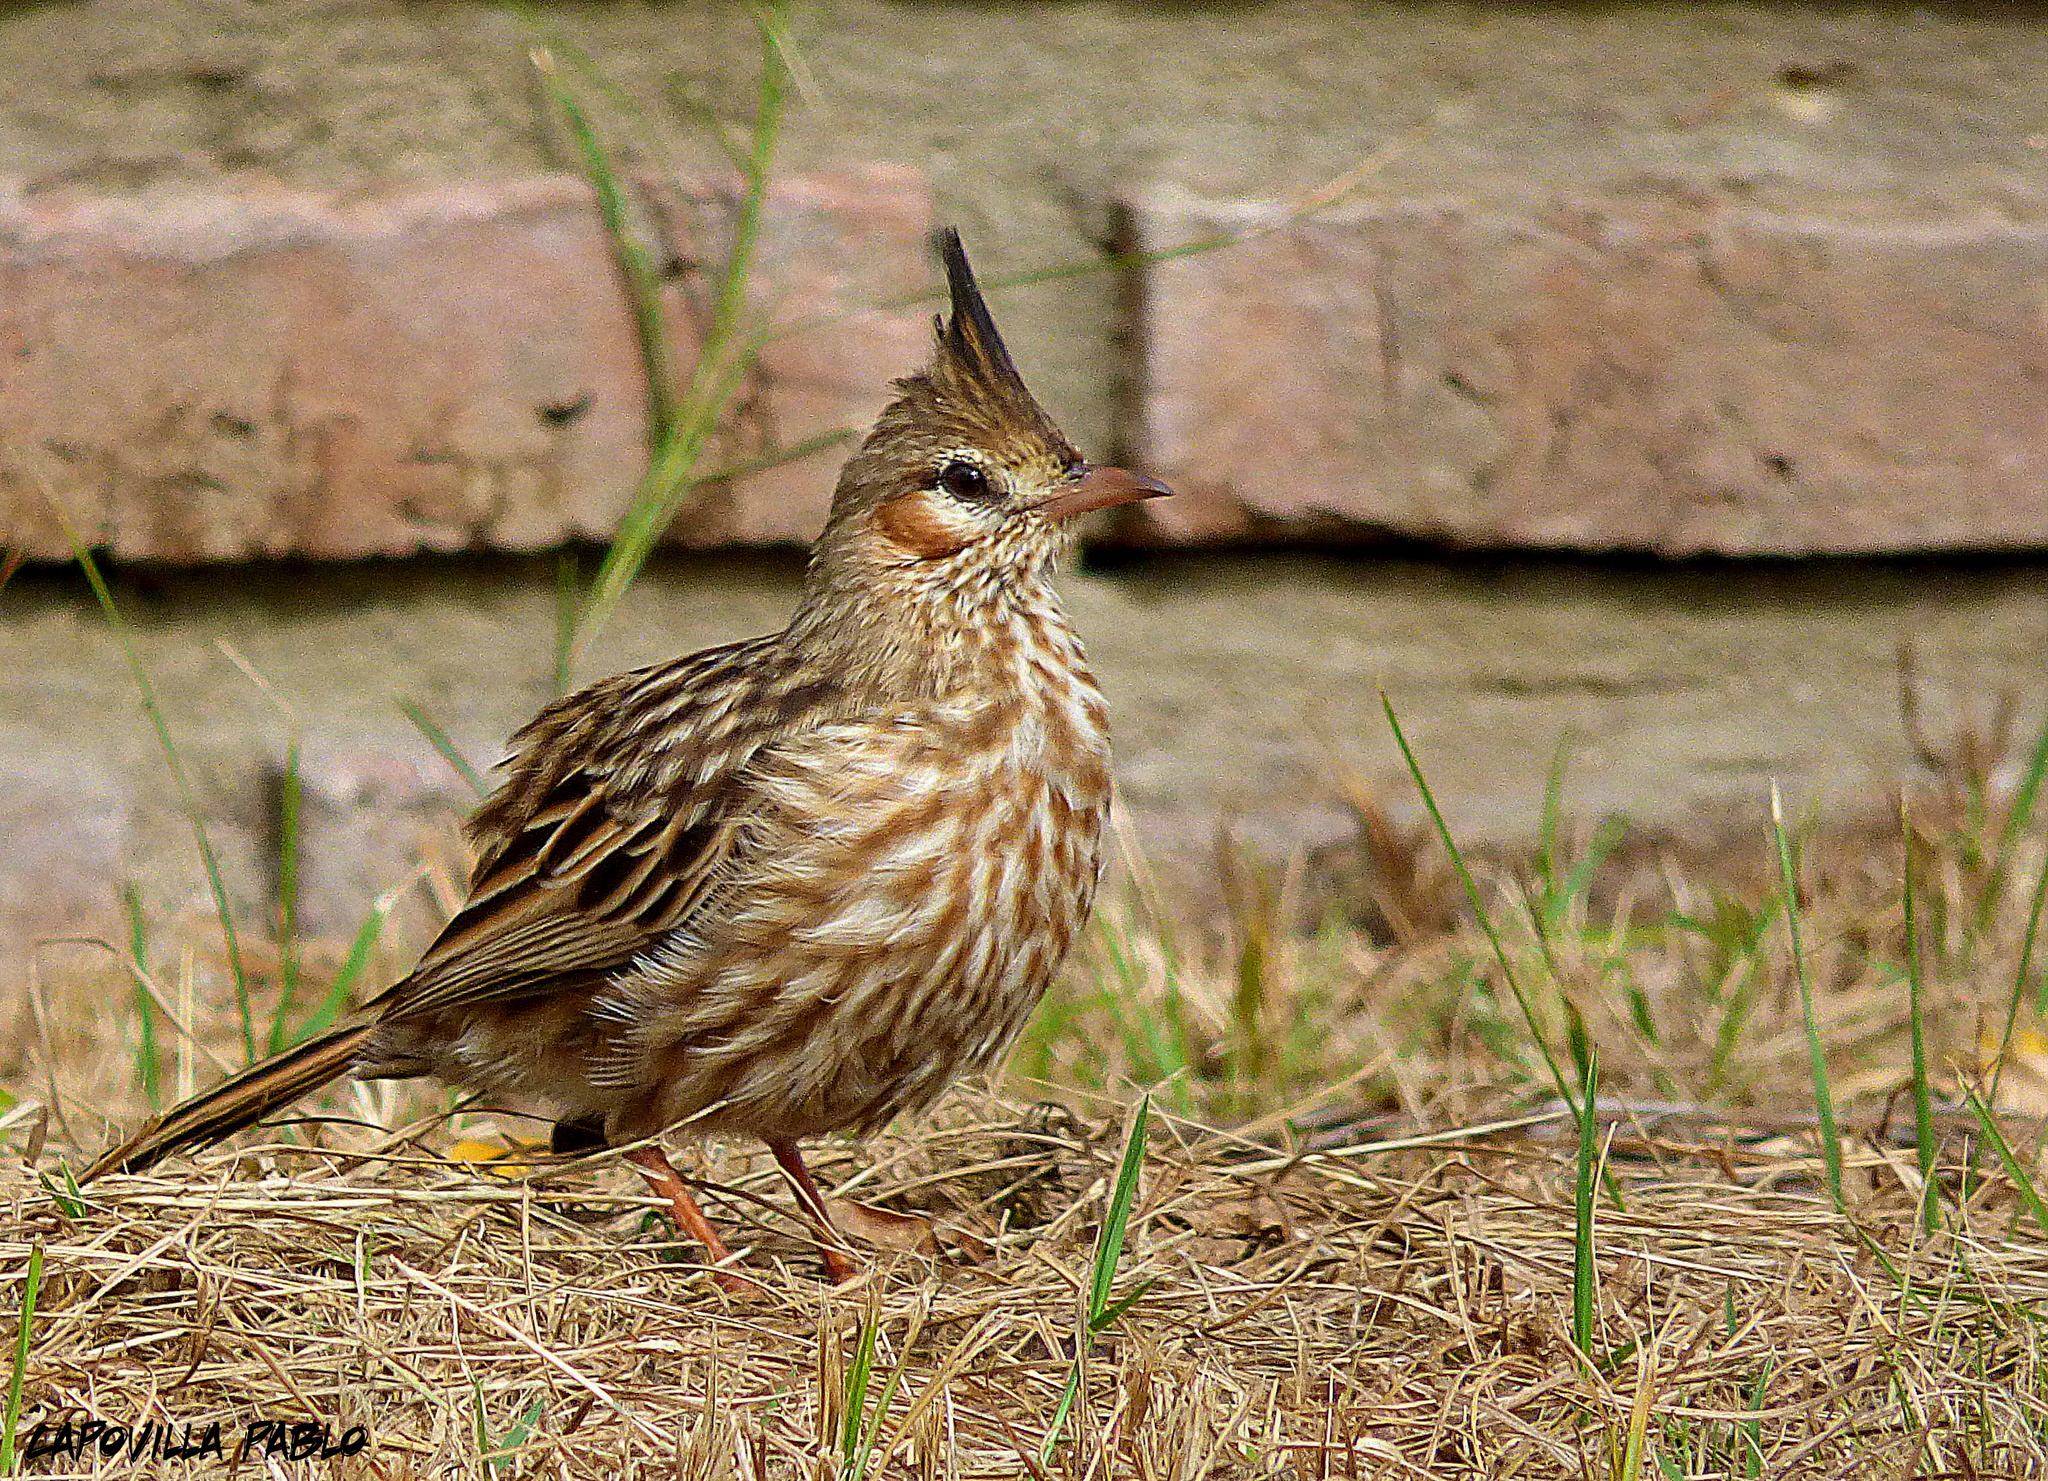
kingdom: Animalia
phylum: Chordata
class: Aves
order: Passeriformes
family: Furnariidae
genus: Coryphistera
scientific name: Coryphistera alaudina
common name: Lark-like brushrunner
